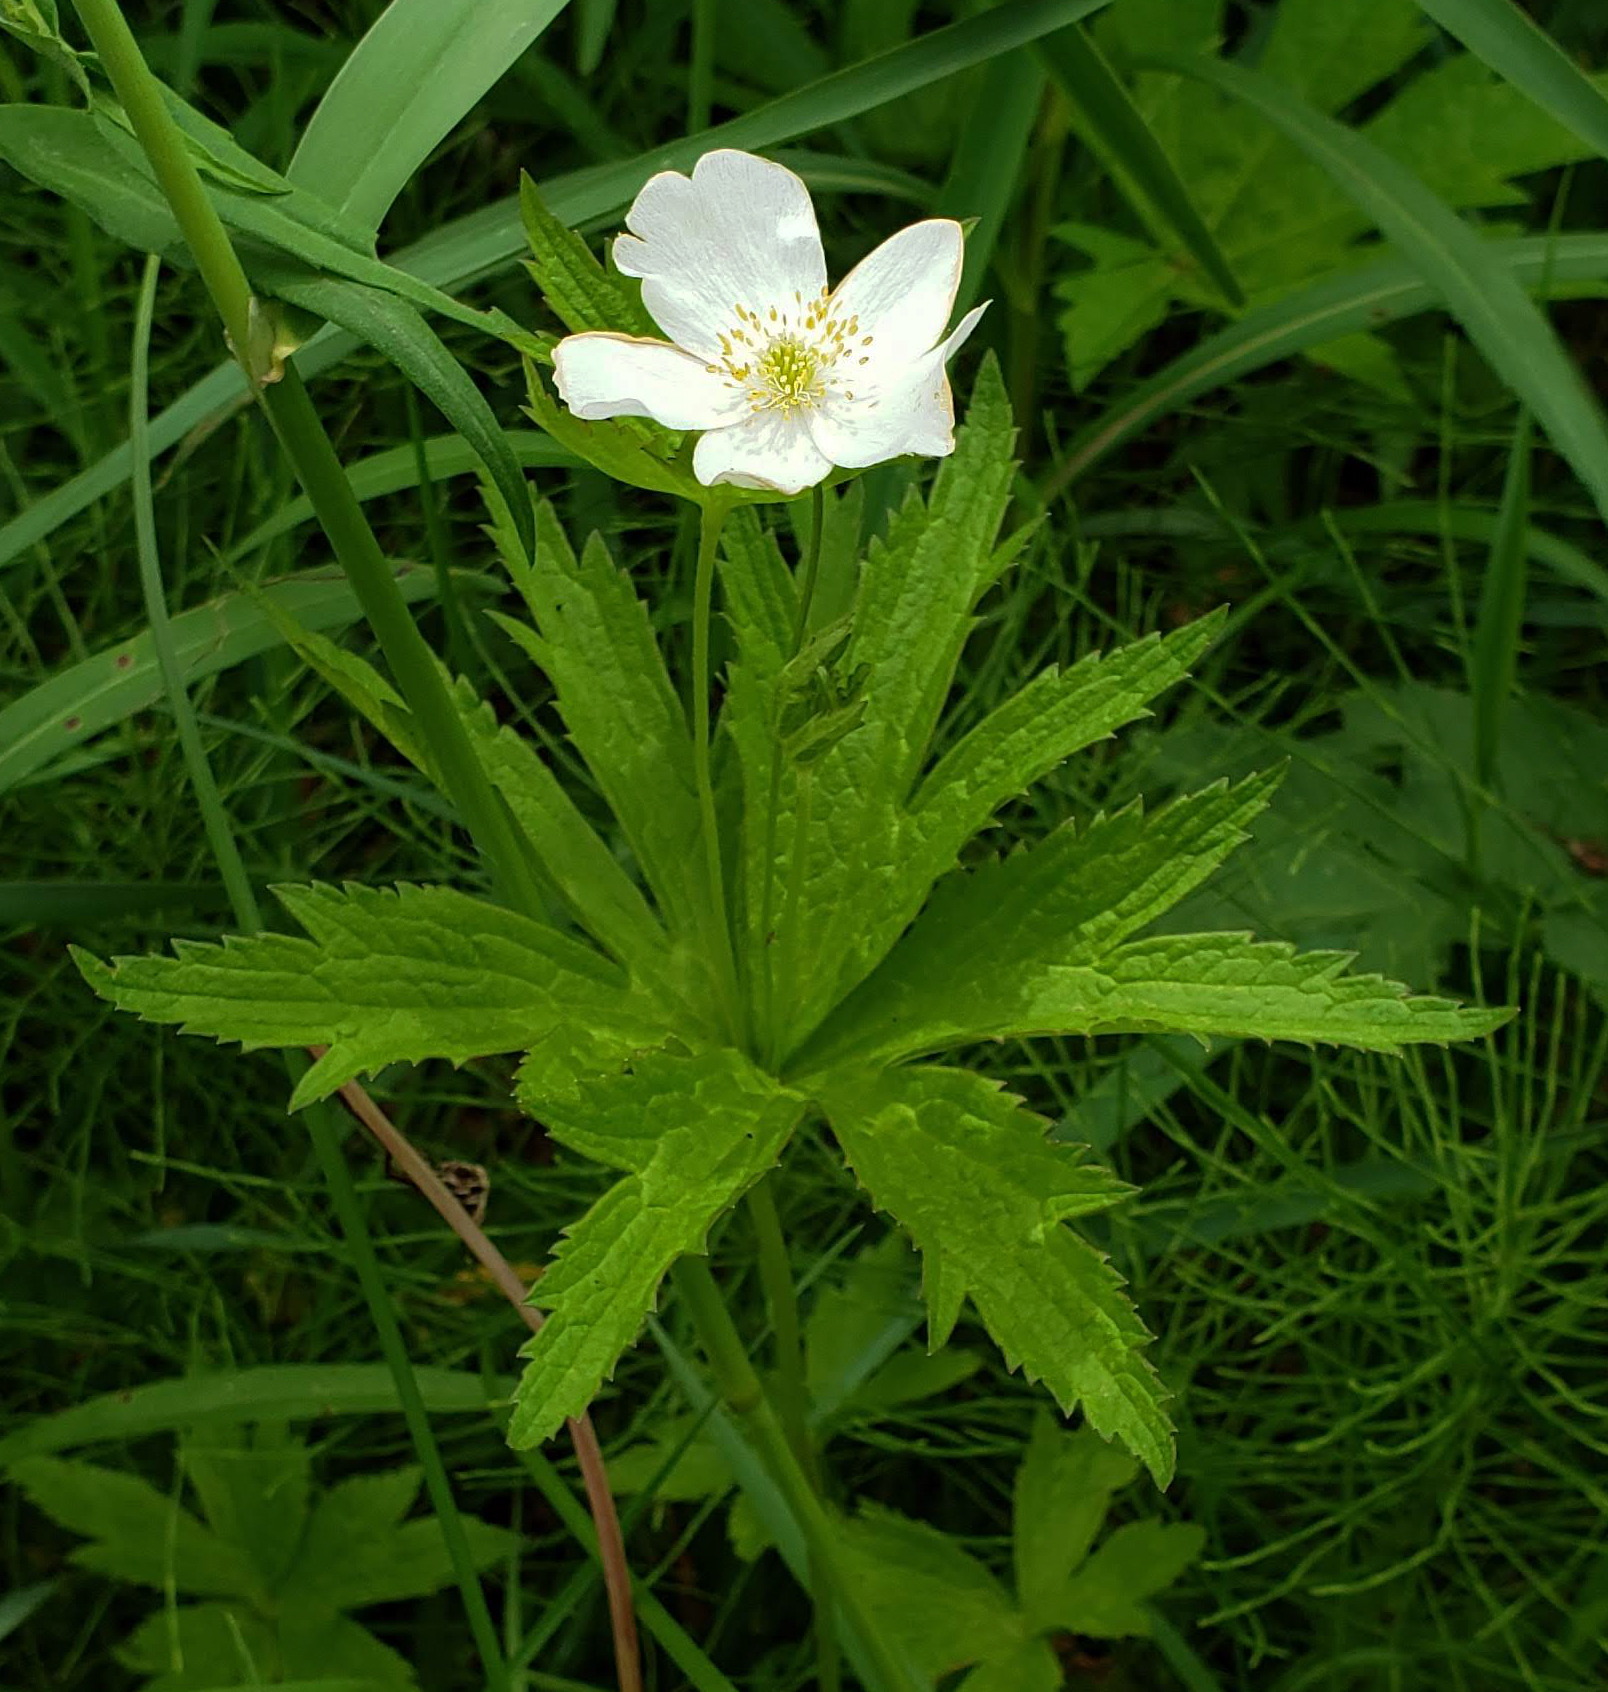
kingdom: Plantae
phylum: Tracheophyta
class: Magnoliopsida
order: Ranunculales
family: Ranunculaceae
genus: Anemonastrum
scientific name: Anemonastrum canadense
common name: Canada anemone
